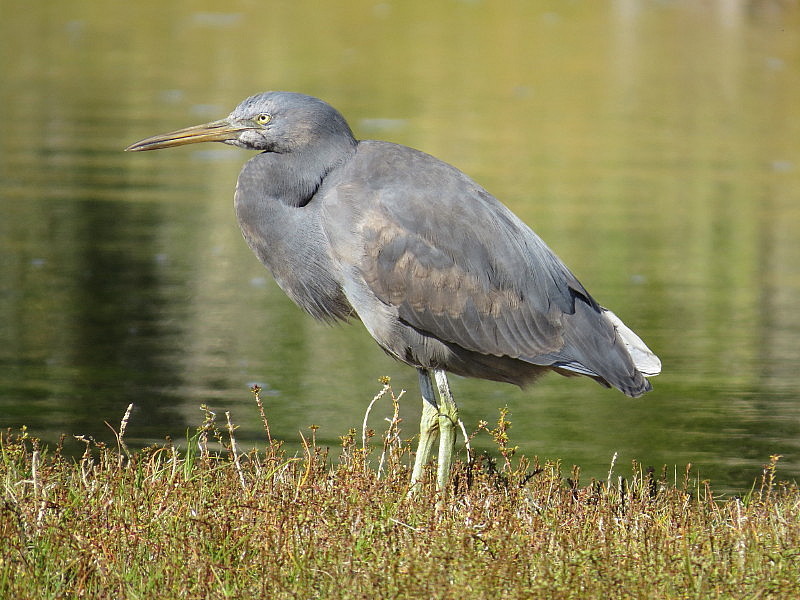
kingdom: Animalia
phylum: Chordata
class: Aves
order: Pelecaniformes
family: Ardeidae
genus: Egretta
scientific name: Egretta sacra
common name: Pacific reef heron
